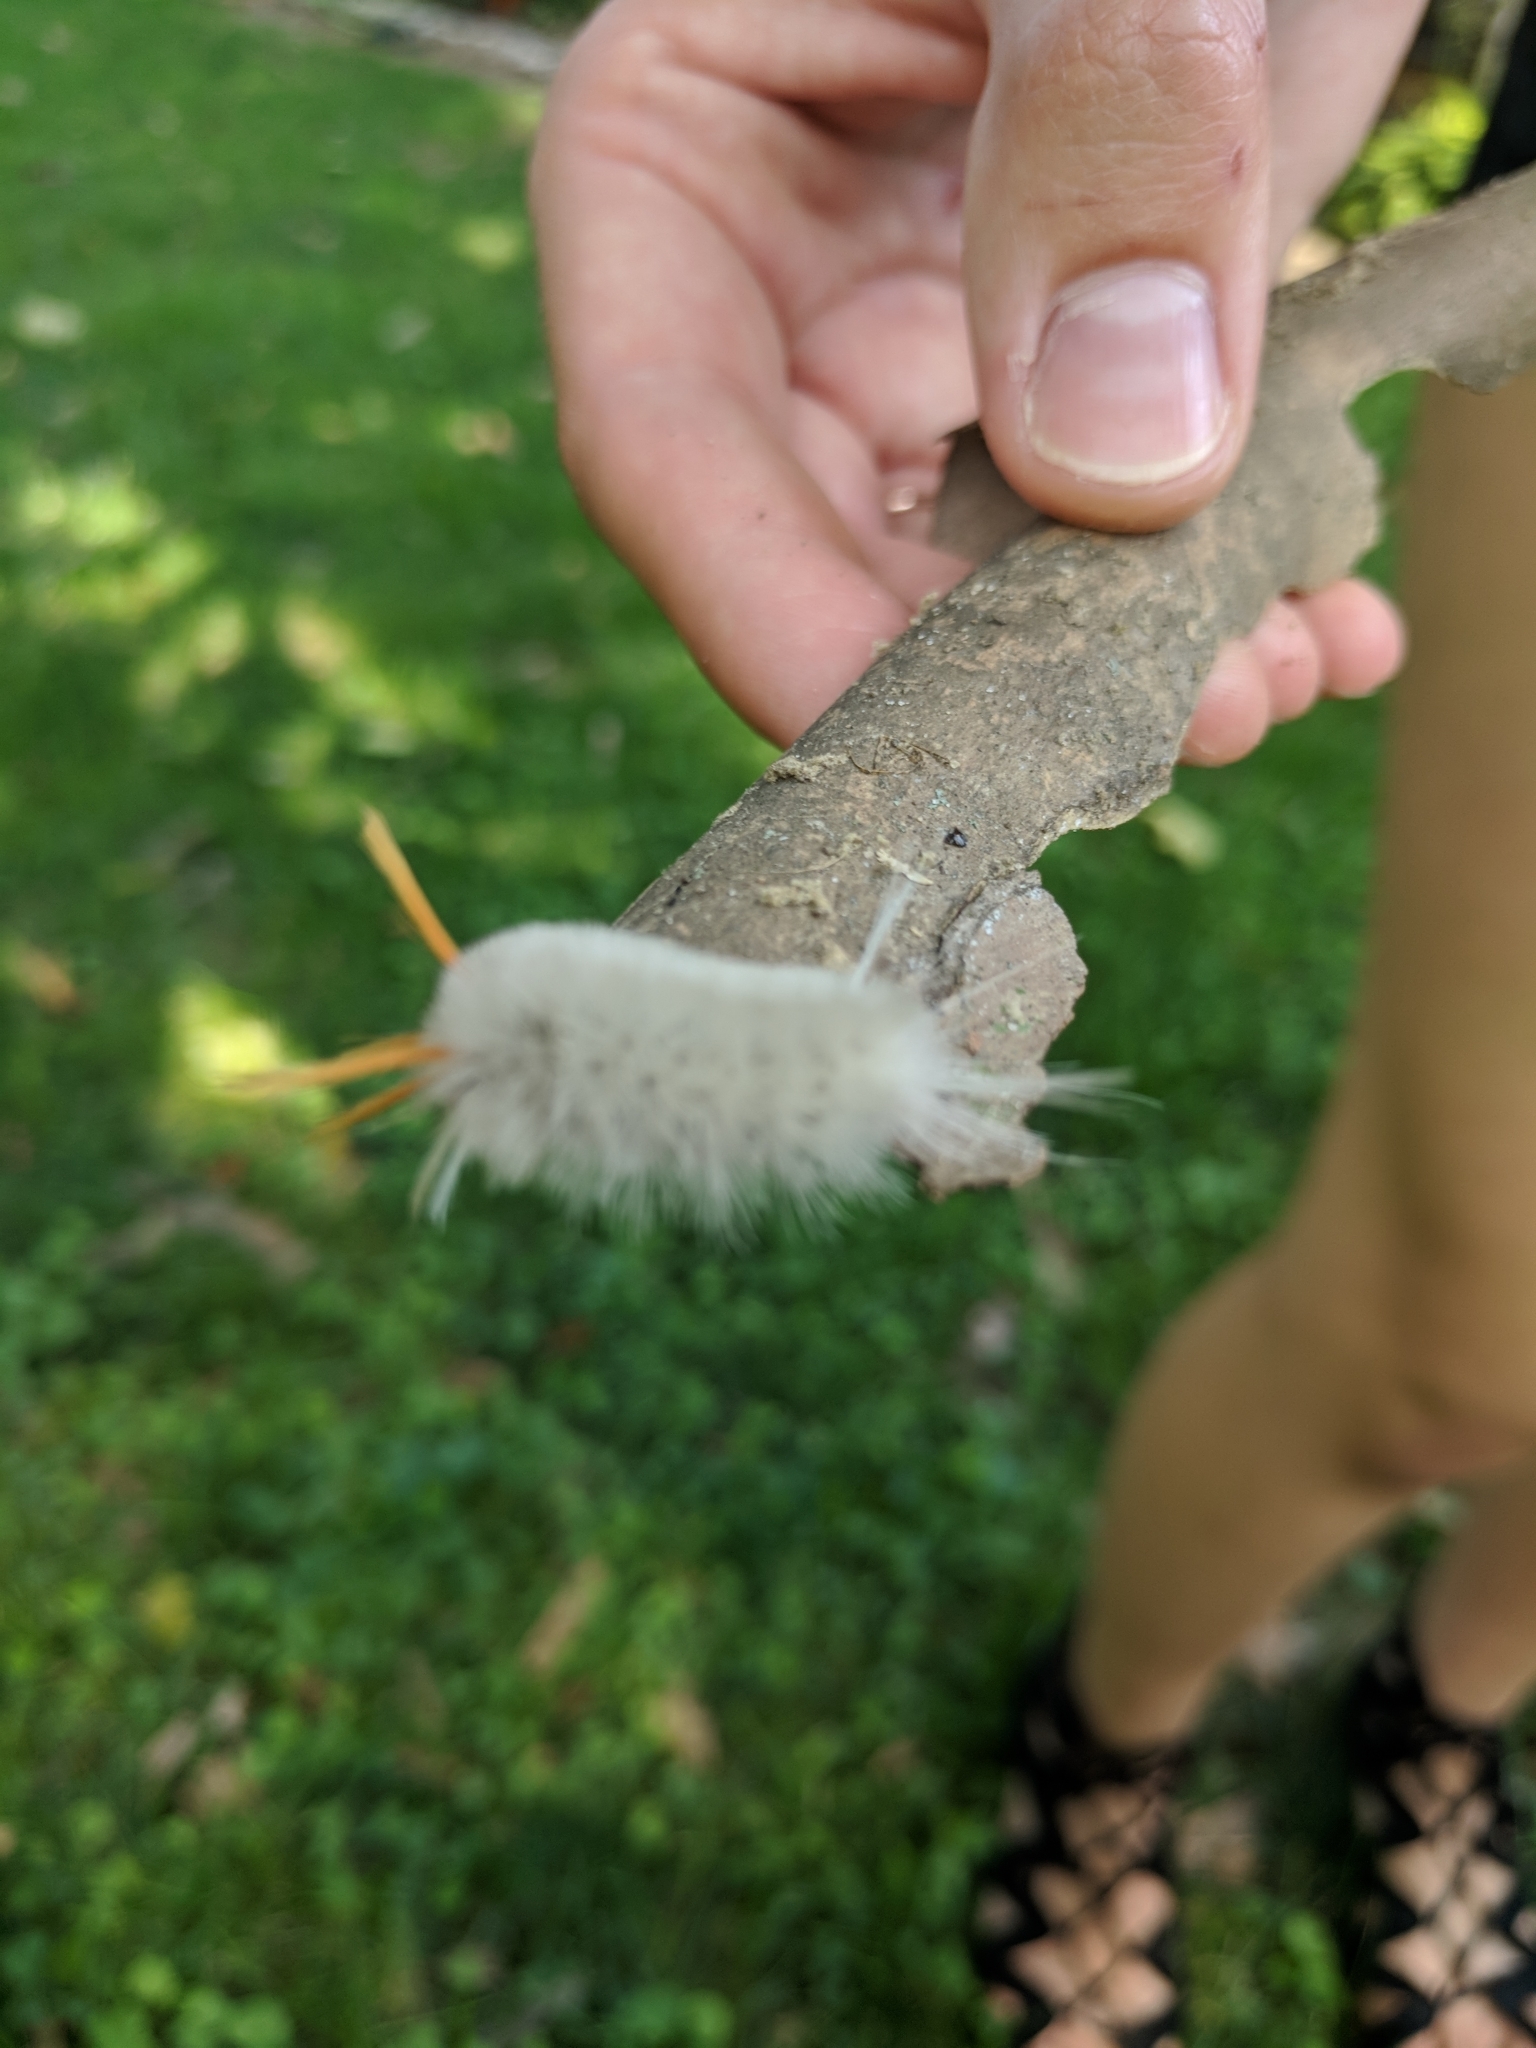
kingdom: Animalia
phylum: Arthropoda
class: Insecta
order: Lepidoptera
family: Erebidae
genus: Halysidota
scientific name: Halysidota harrisii
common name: Sycamore tussock moth
